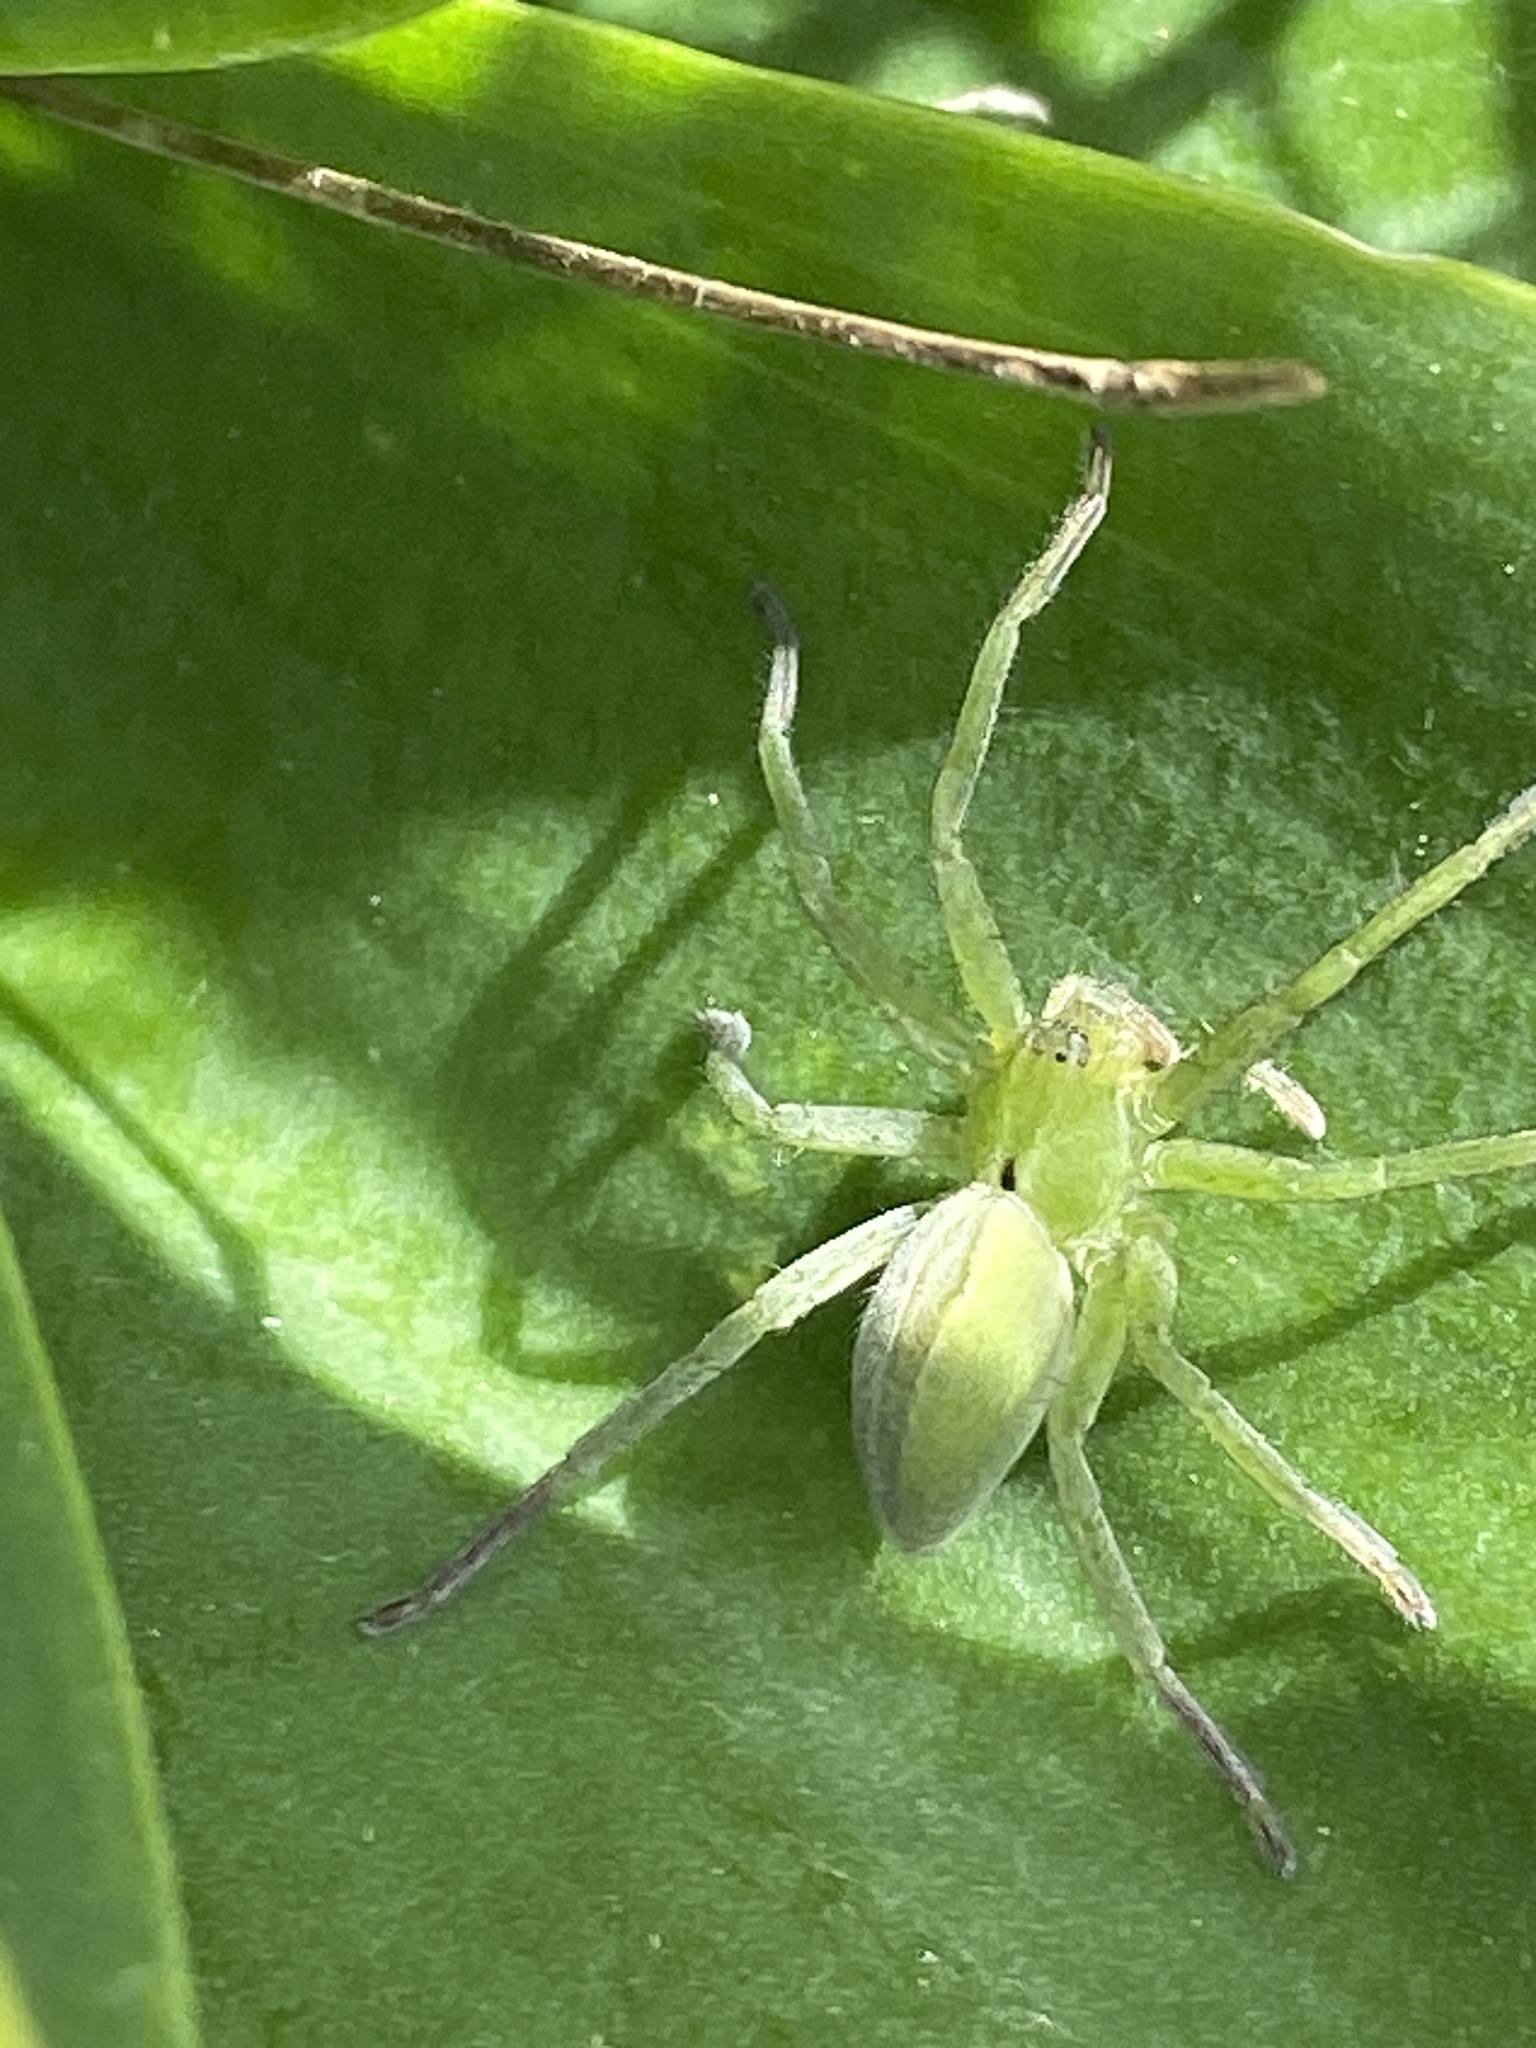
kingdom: Animalia
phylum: Arthropoda
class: Arachnida
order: Araneae
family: Sparassidae
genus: Micrommata
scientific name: Micrommata ligurina
